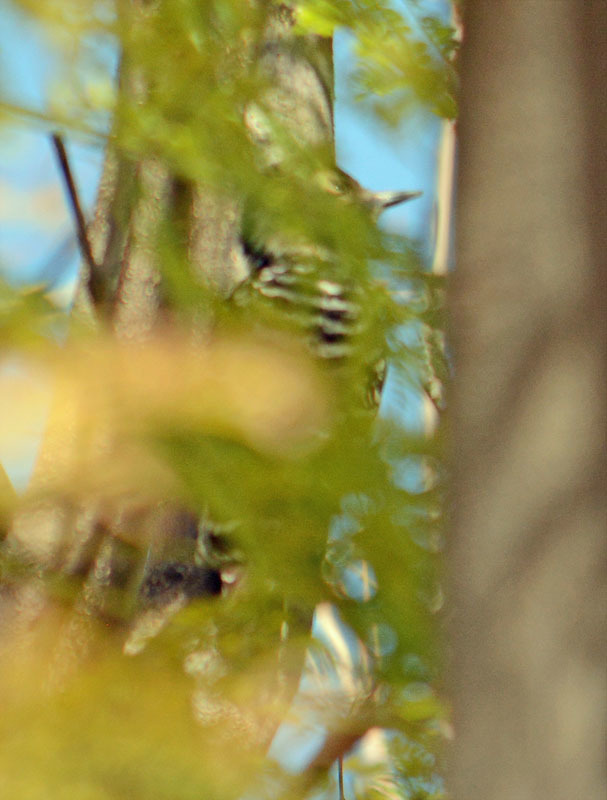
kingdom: Animalia
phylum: Chordata
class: Aves
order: Piciformes
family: Picidae
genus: Dryobates
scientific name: Dryobates scalaris
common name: Ladder-backed woodpecker
